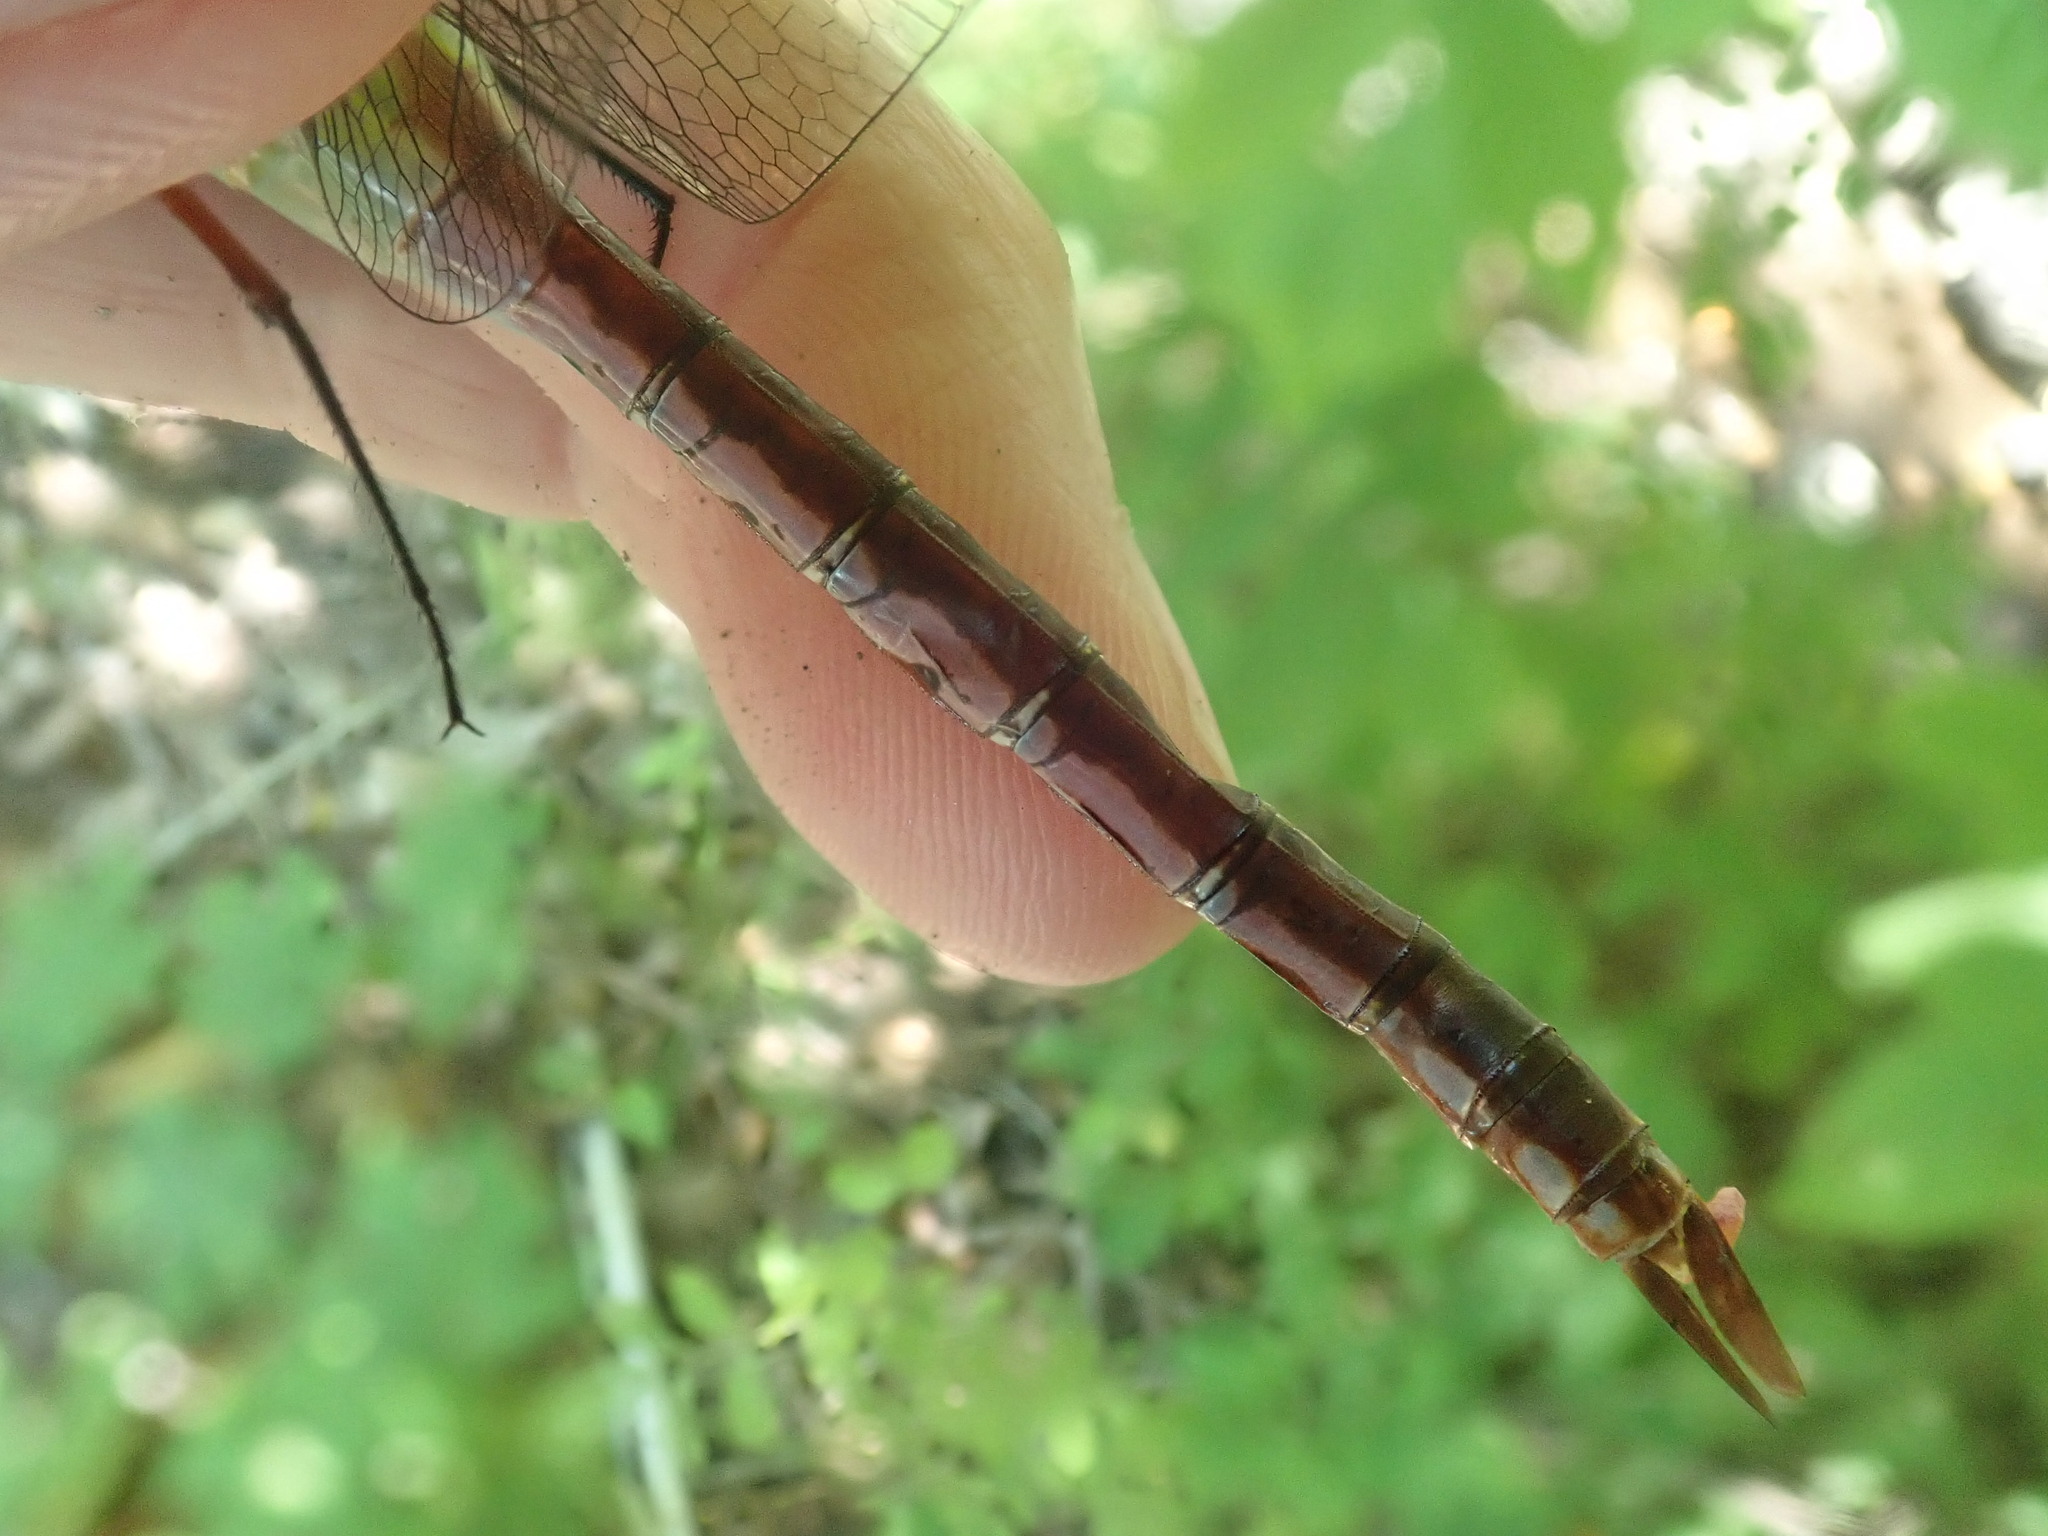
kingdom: Animalia
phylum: Arthropoda
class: Insecta
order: Odonata
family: Aeshnidae
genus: Anax
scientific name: Anax junius
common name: Common green darner
